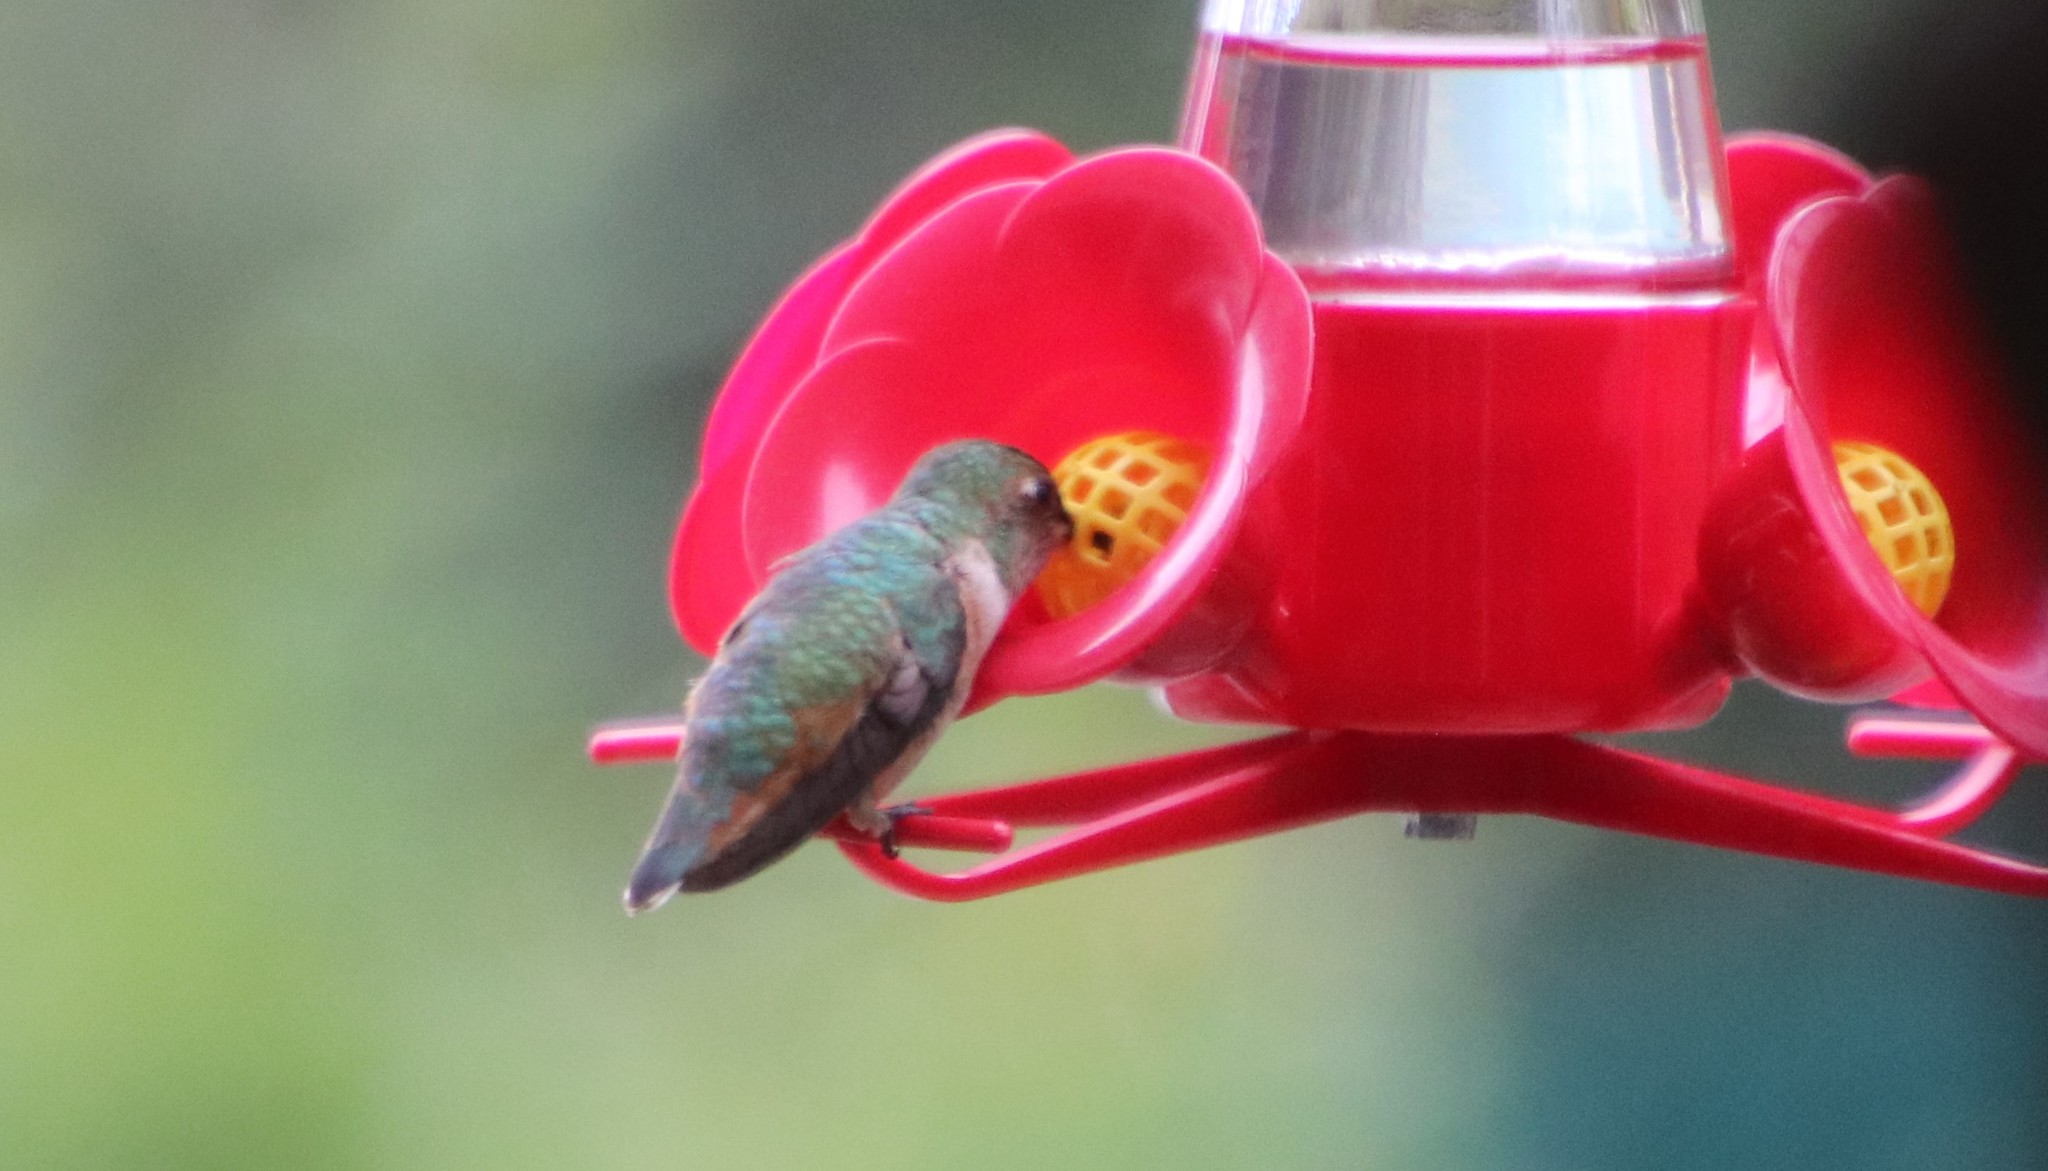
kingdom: Animalia
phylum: Chordata
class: Aves
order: Apodiformes
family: Trochilidae
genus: Selasphorus
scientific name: Selasphorus
